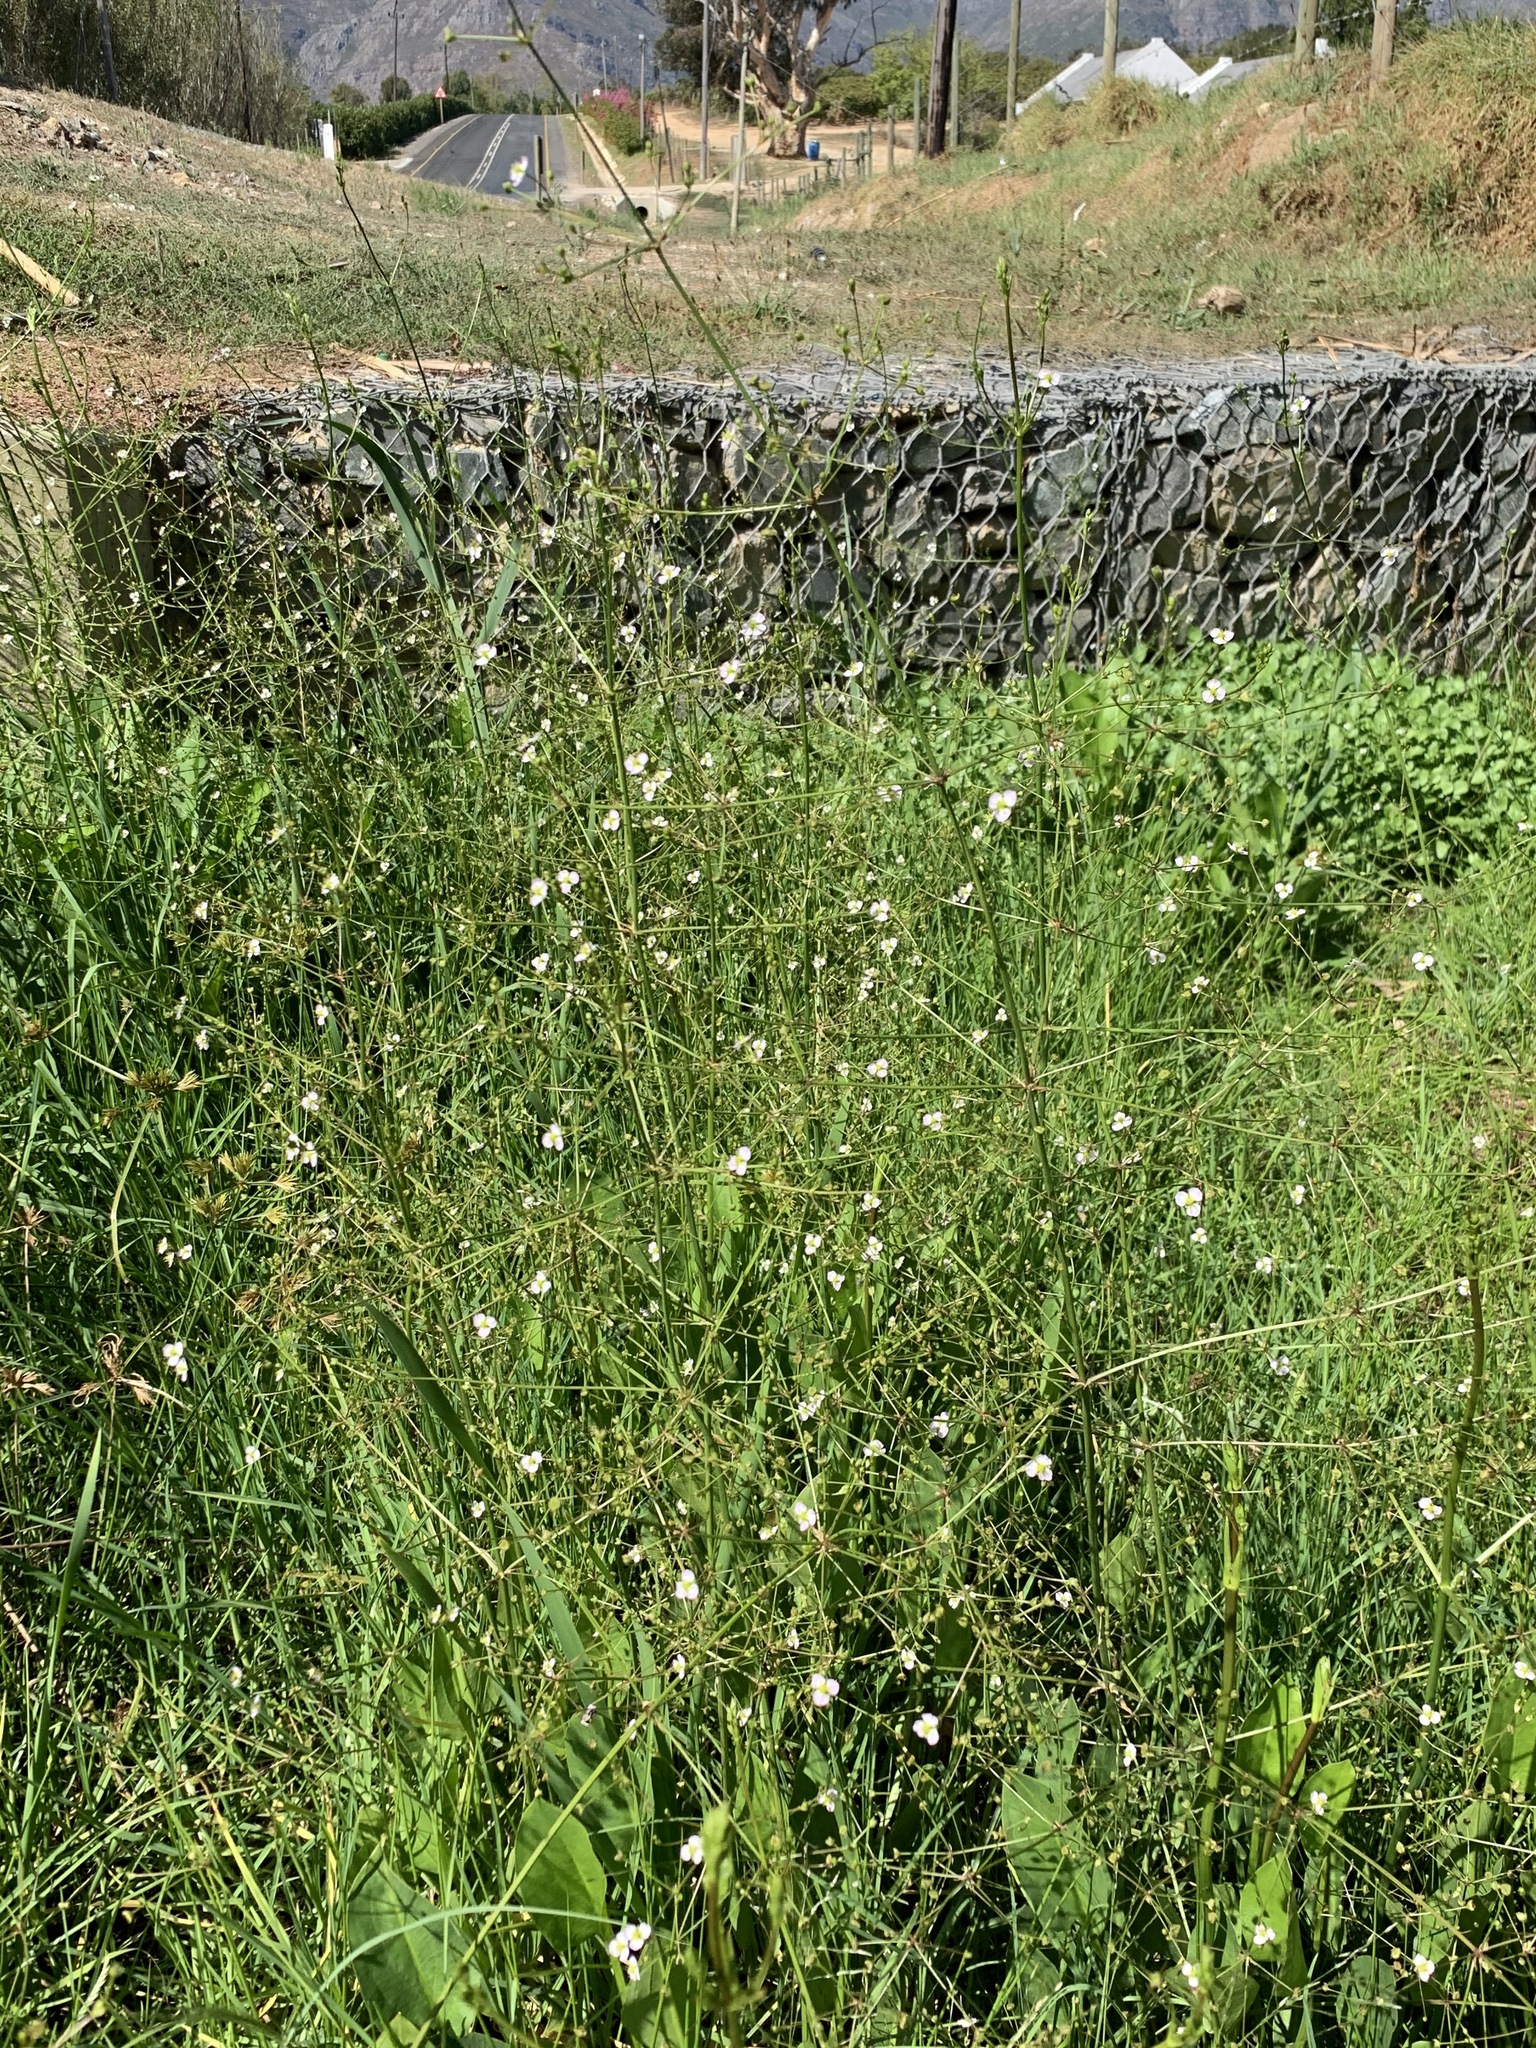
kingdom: Plantae
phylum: Tracheophyta
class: Liliopsida
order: Alismatales
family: Alismataceae
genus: Alisma
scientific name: Alisma plantago-aquatica
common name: Water-plantain
